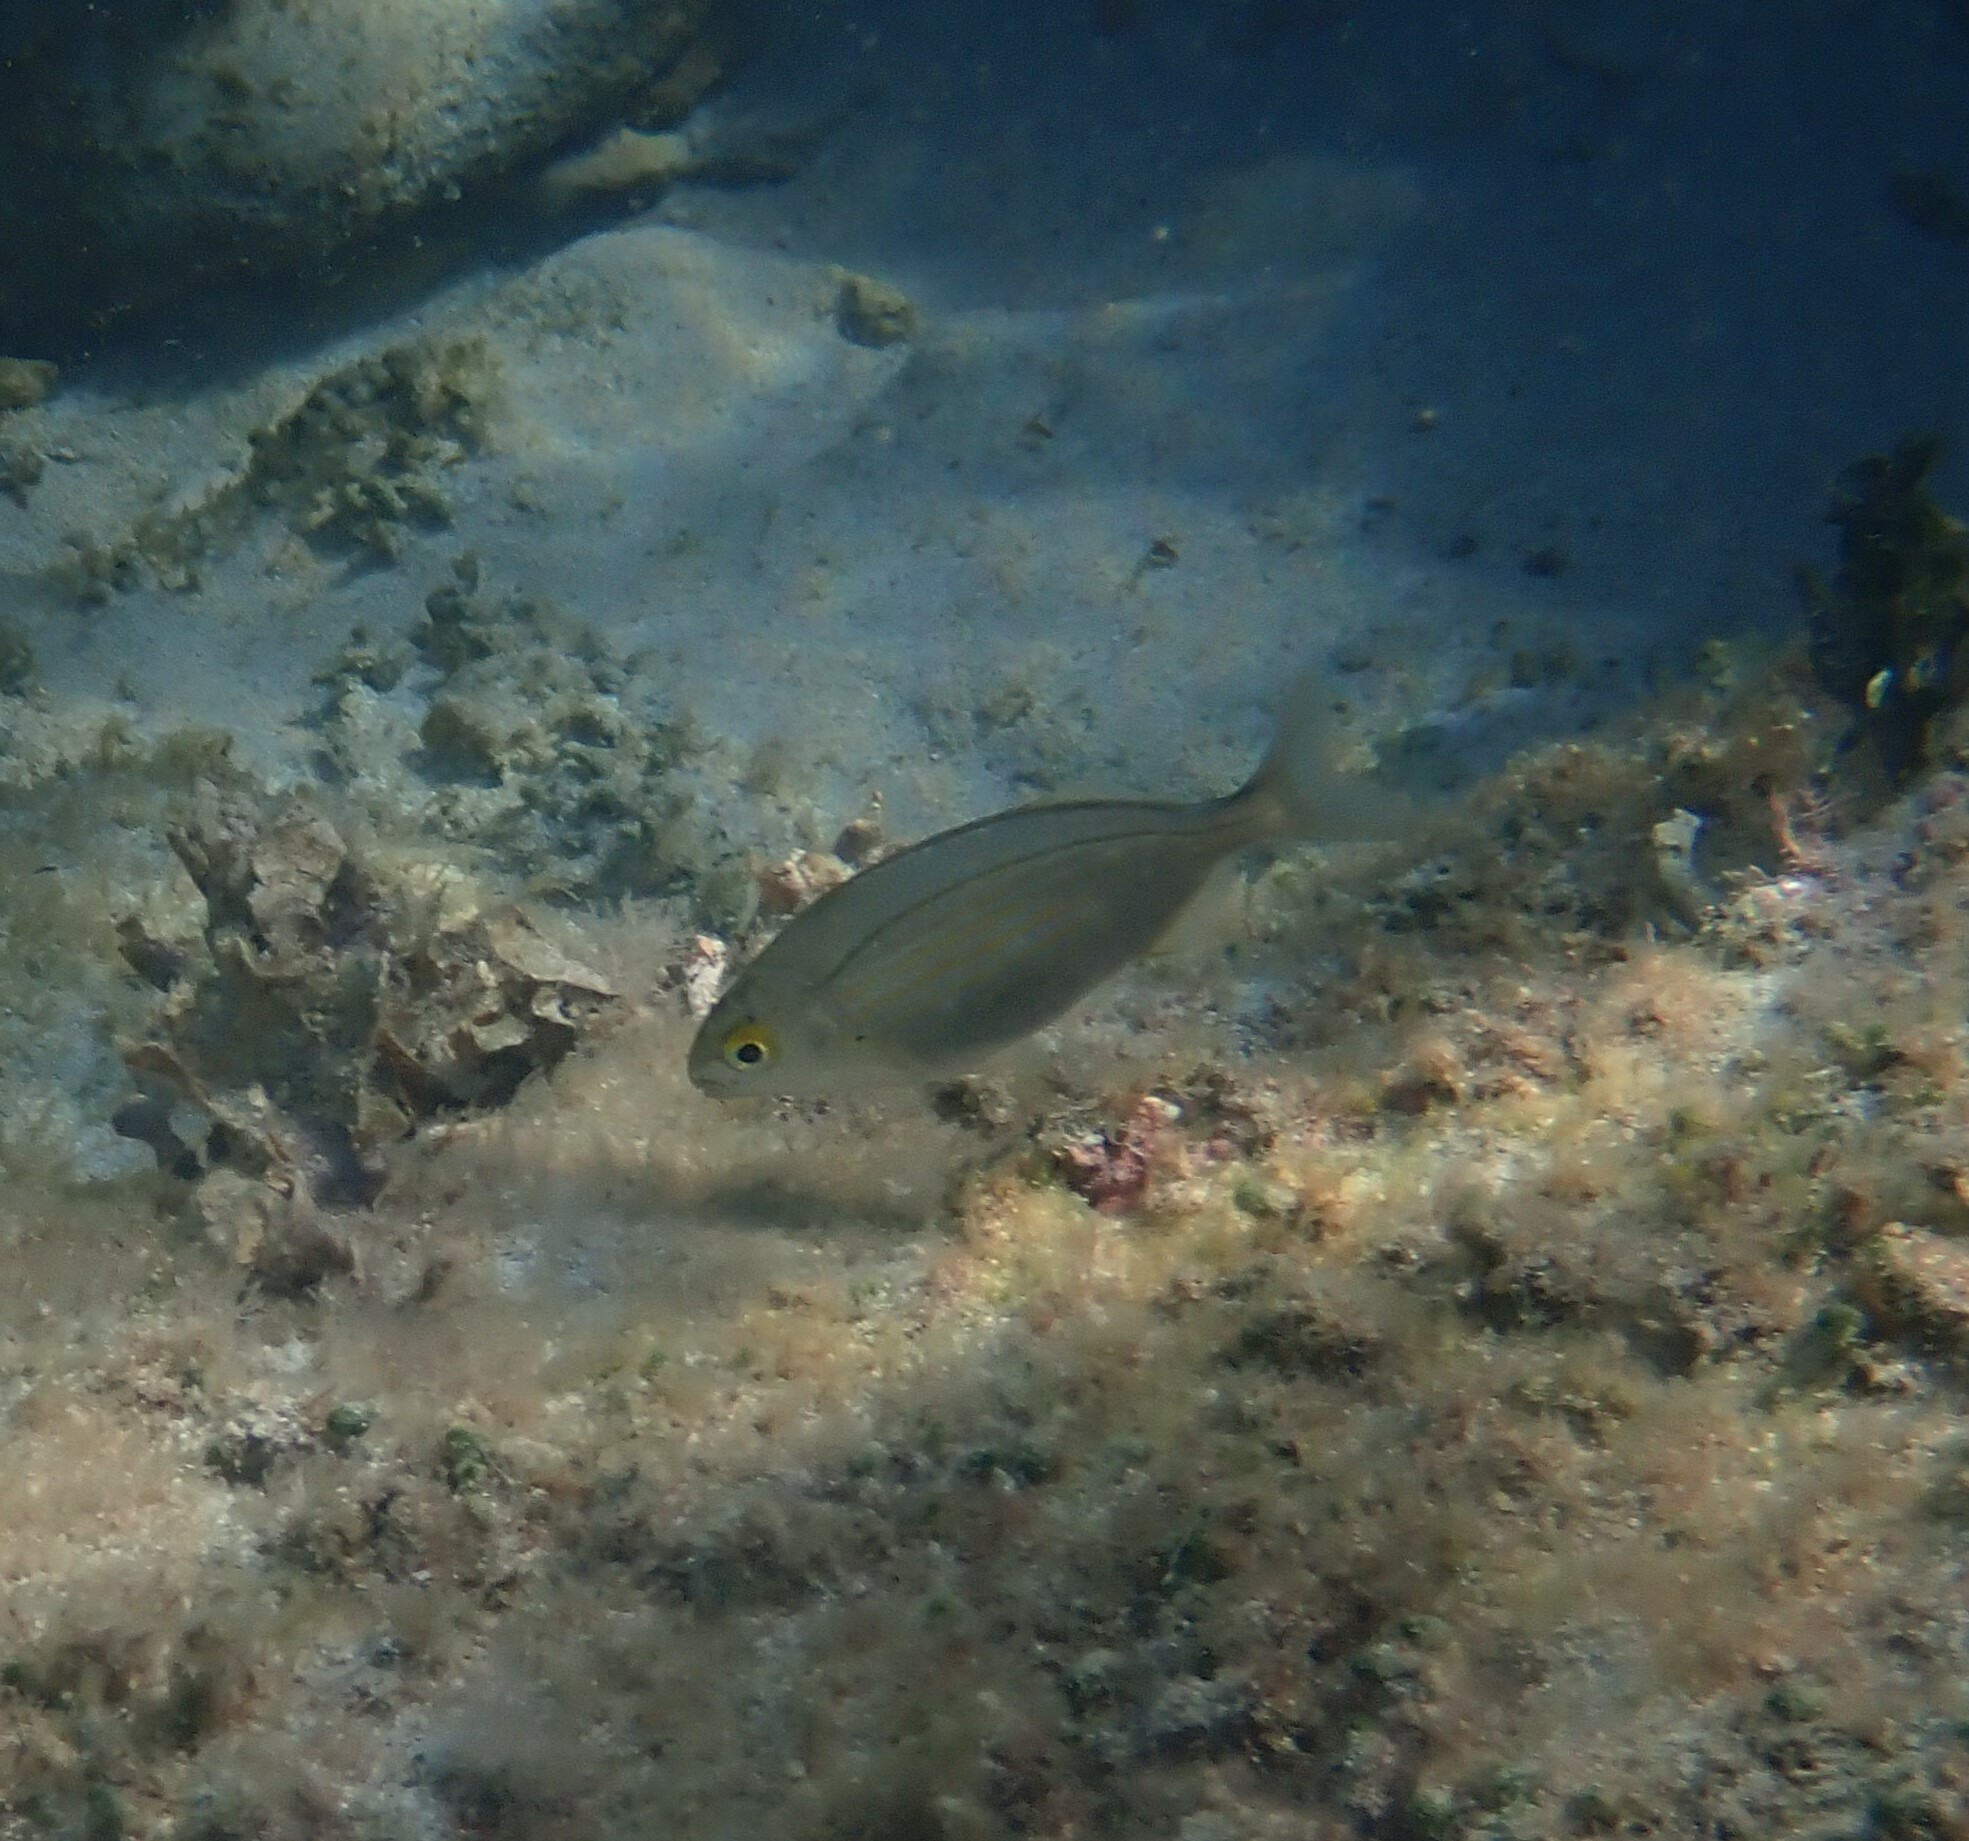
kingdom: Animalia
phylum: Chordata
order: Perciformes
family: Sparidae
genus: Sarpa
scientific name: Sarpa salpa
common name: Salema
